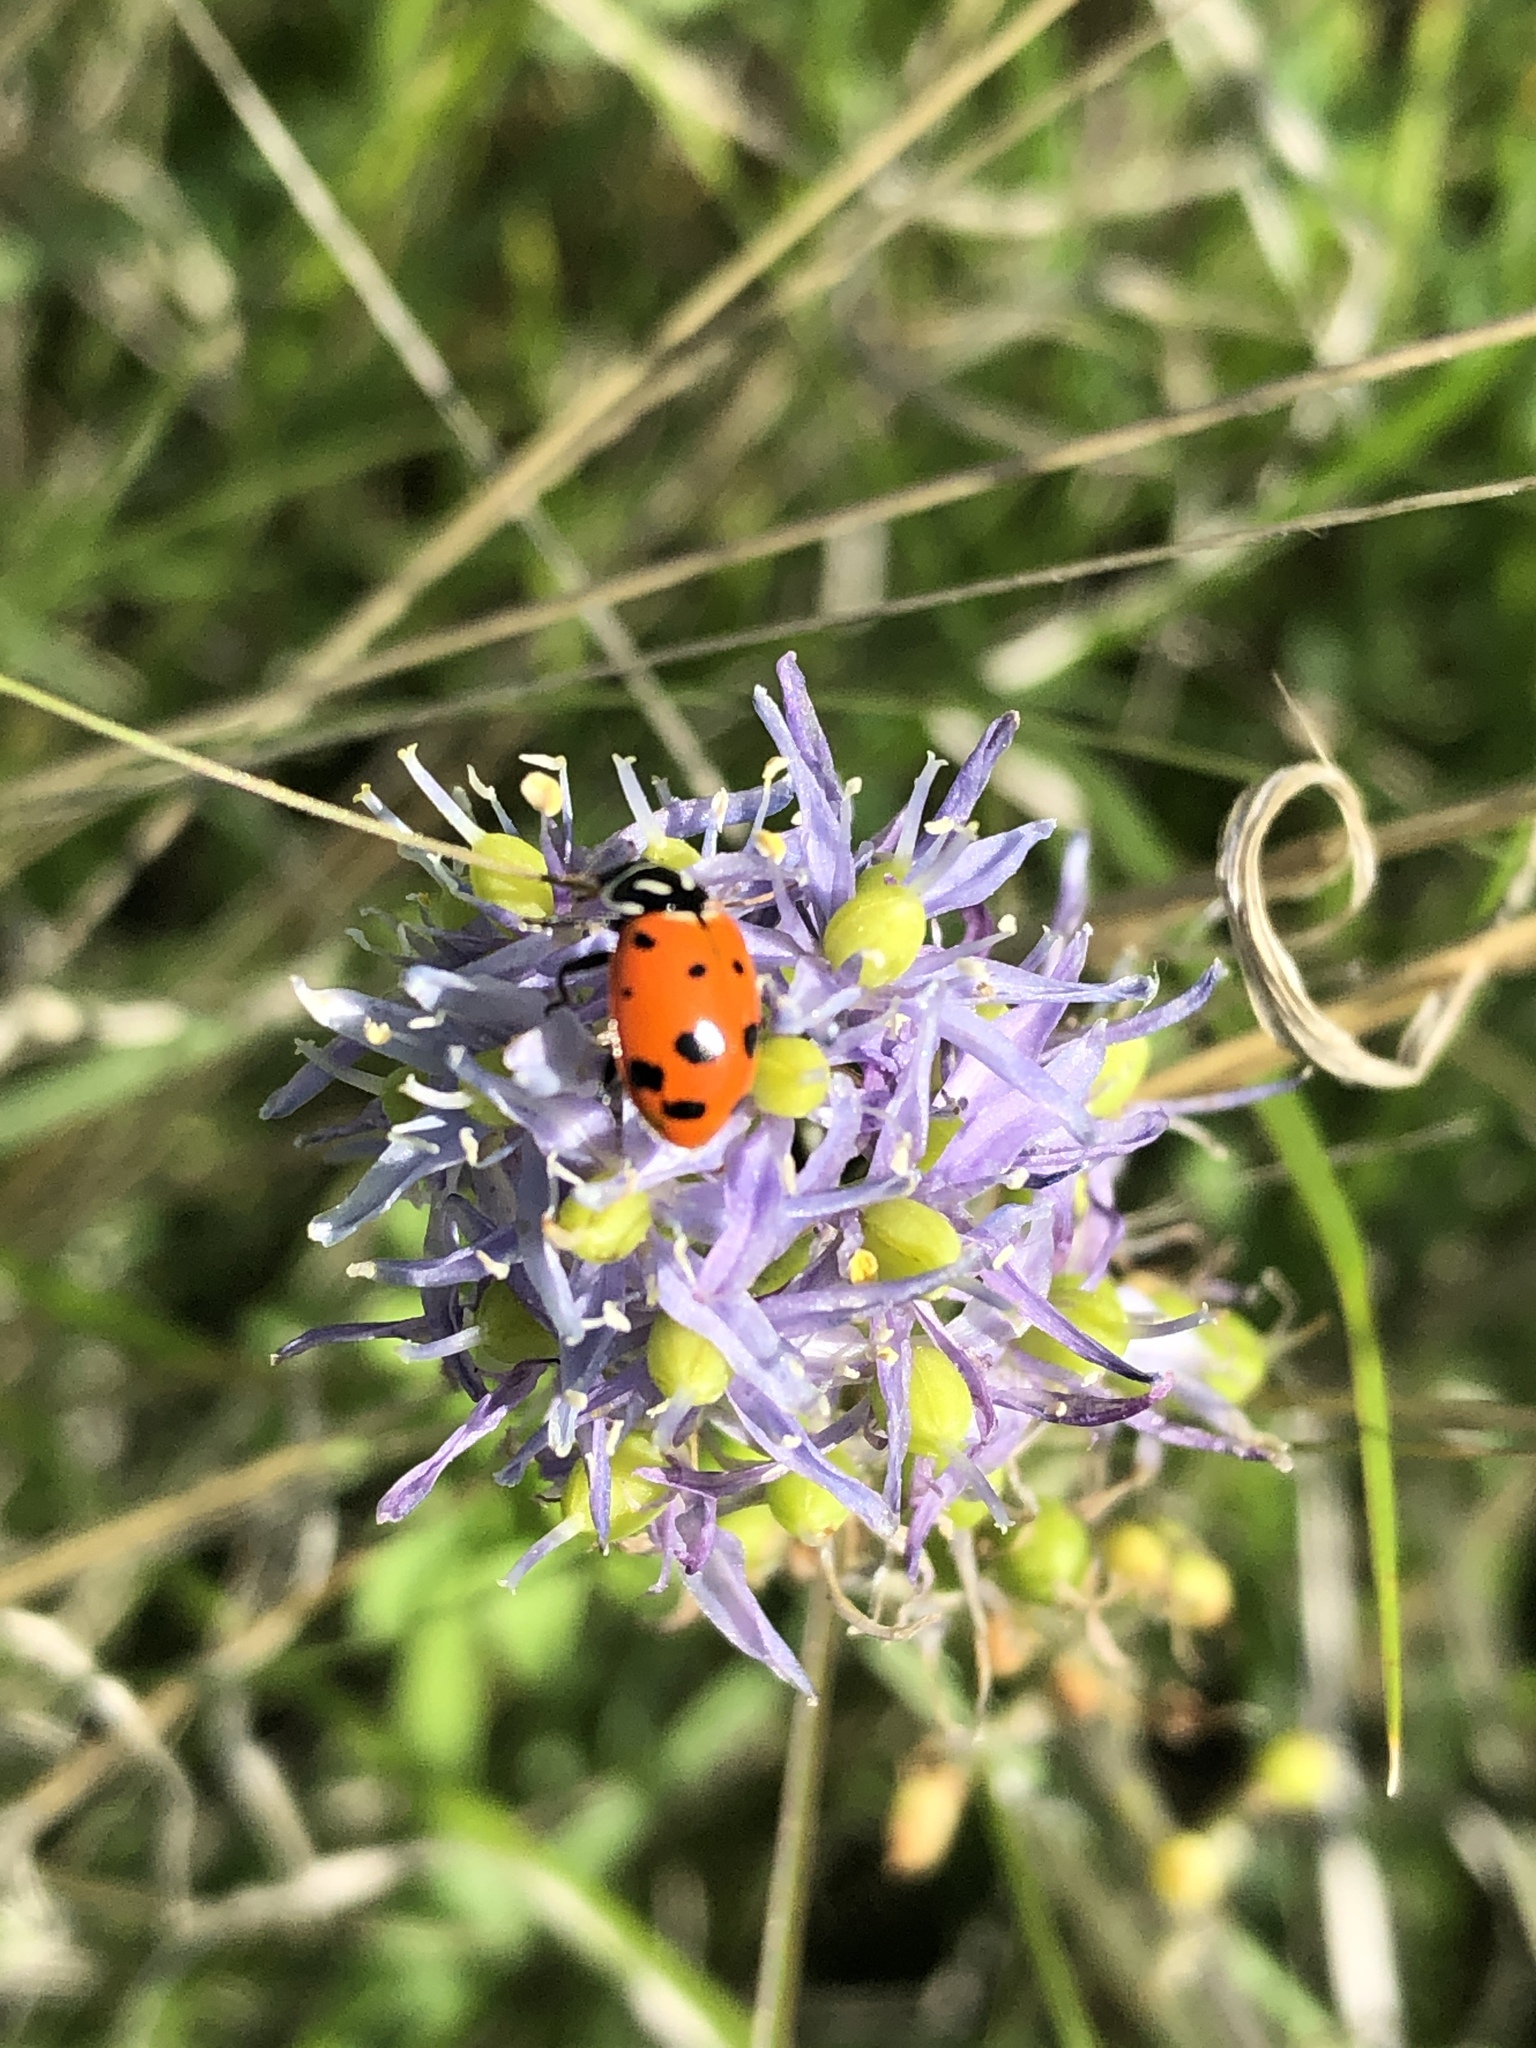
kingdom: Animalia
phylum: Arthropoda
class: Insecta
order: Coleoptera
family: Coccinellidae
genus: Hippodamia
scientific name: Hippodamia convergens
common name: Convergent lady beetle
